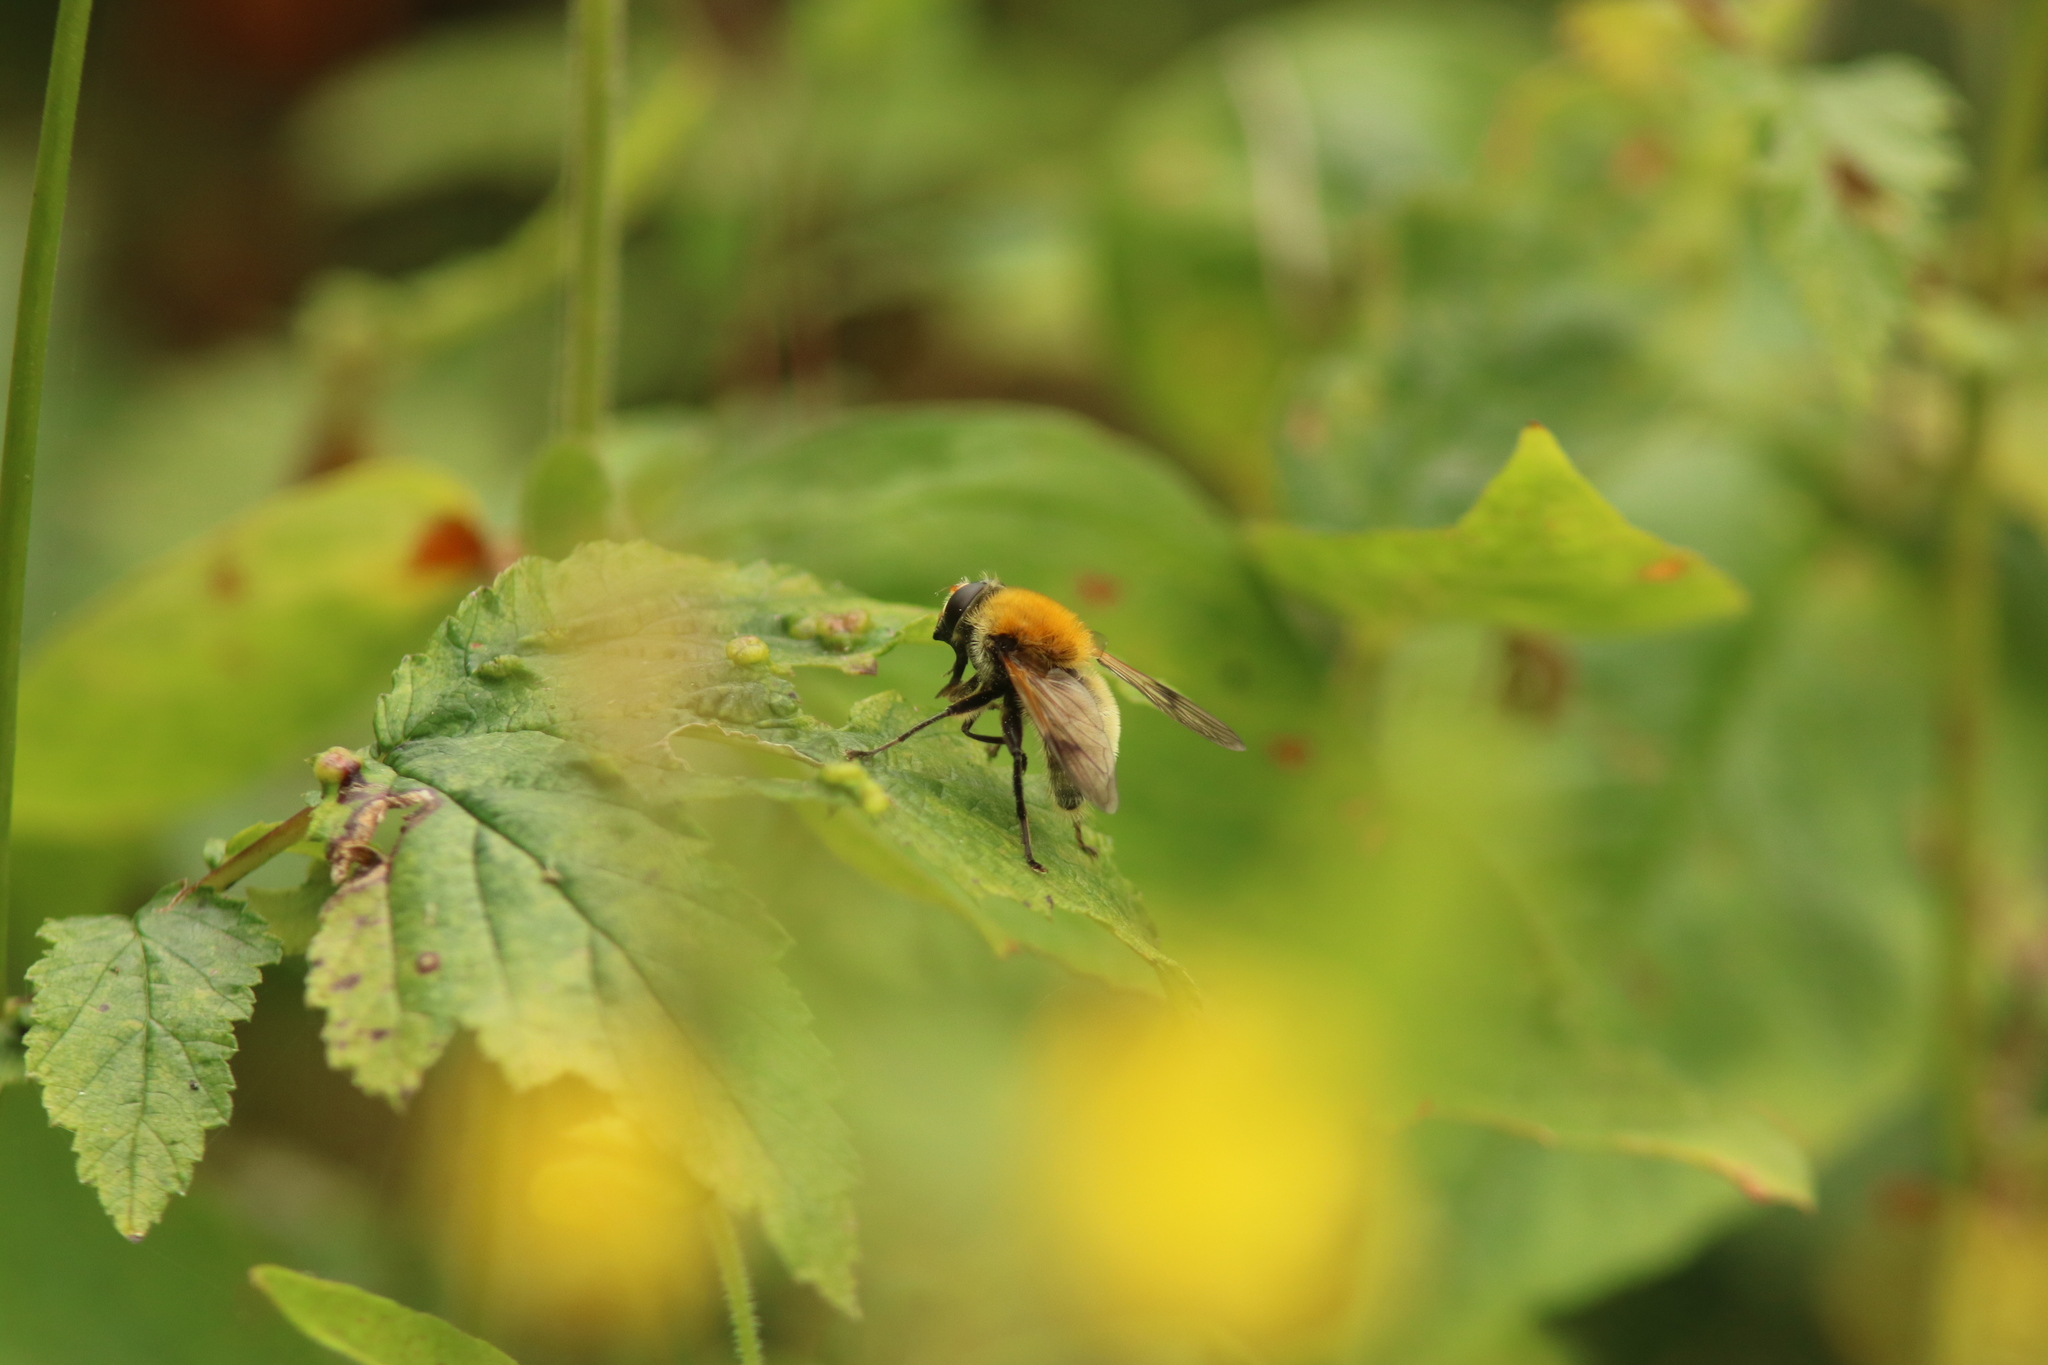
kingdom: Animalia
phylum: Arthropoda
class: Insecta
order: Diptera
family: Syrphidae
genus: Sericomyia
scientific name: Sericomyia superbiens
